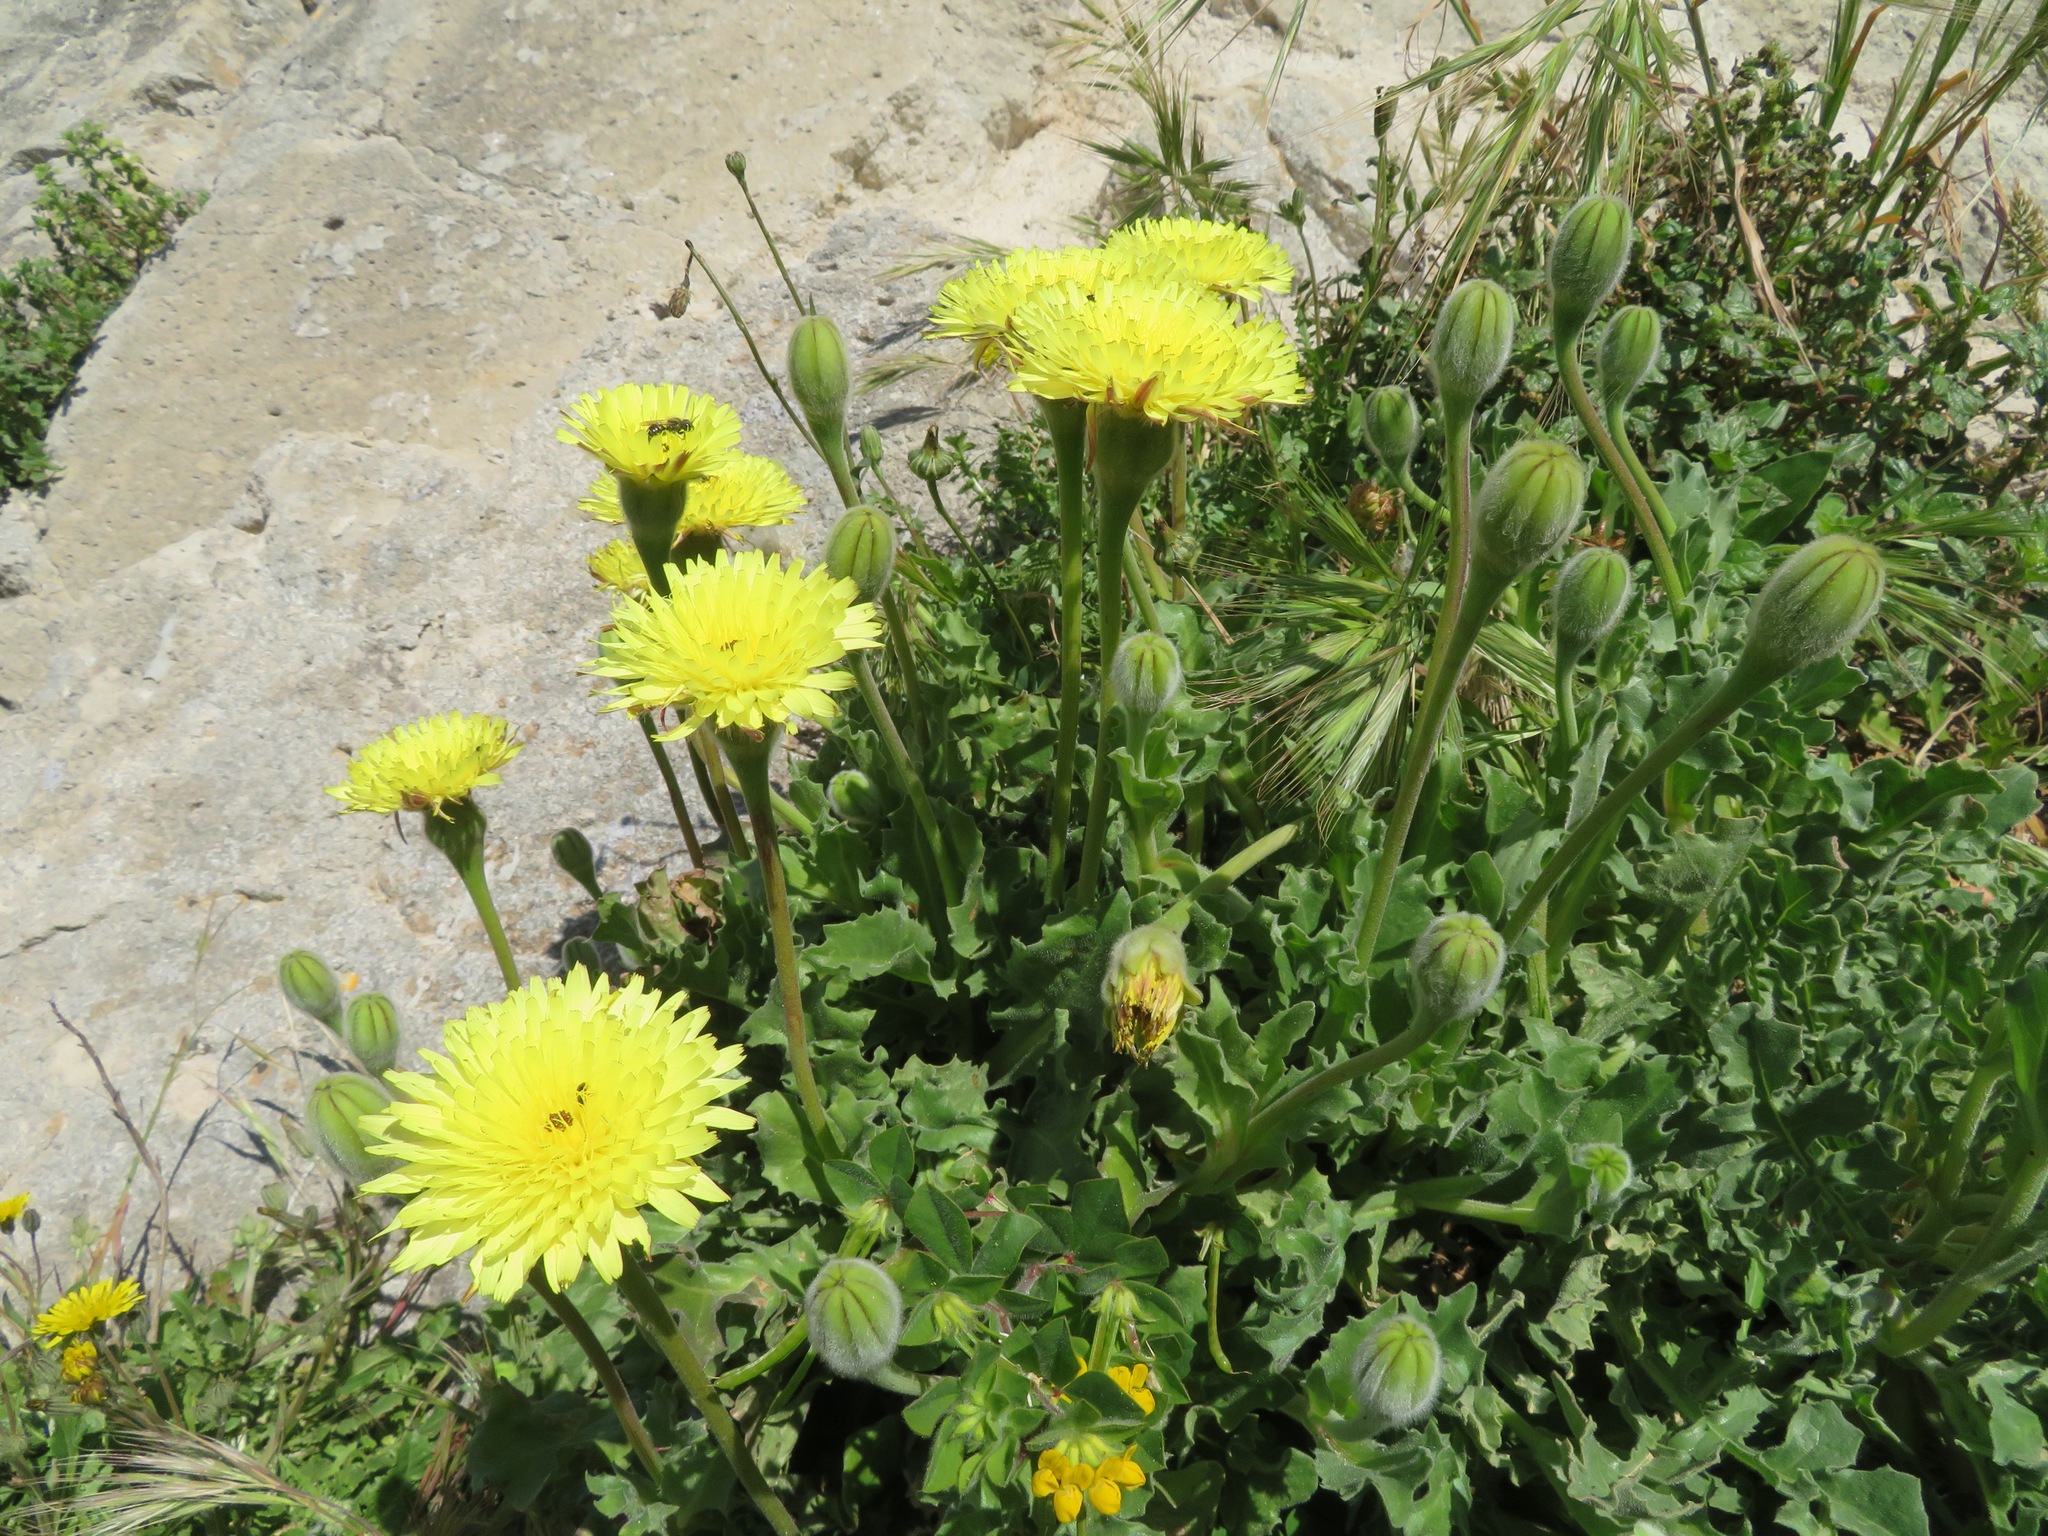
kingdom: Plantae
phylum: Tracheophyta
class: Magnoliopsida
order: Asterales
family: Asteraceae
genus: Urospermum
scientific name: Urospermum dalechampii
